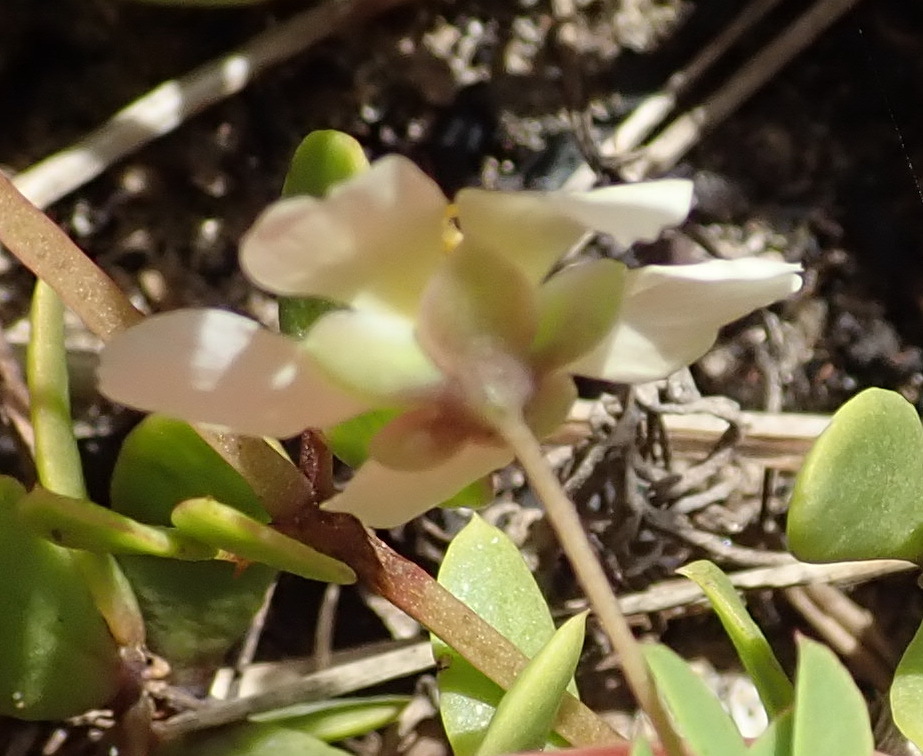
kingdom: Plantae
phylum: Tracheophyta
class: Magnoliopsida
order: Zygophyllales
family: Zygophyllaceae
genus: Roepera
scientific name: Roepera maritima
